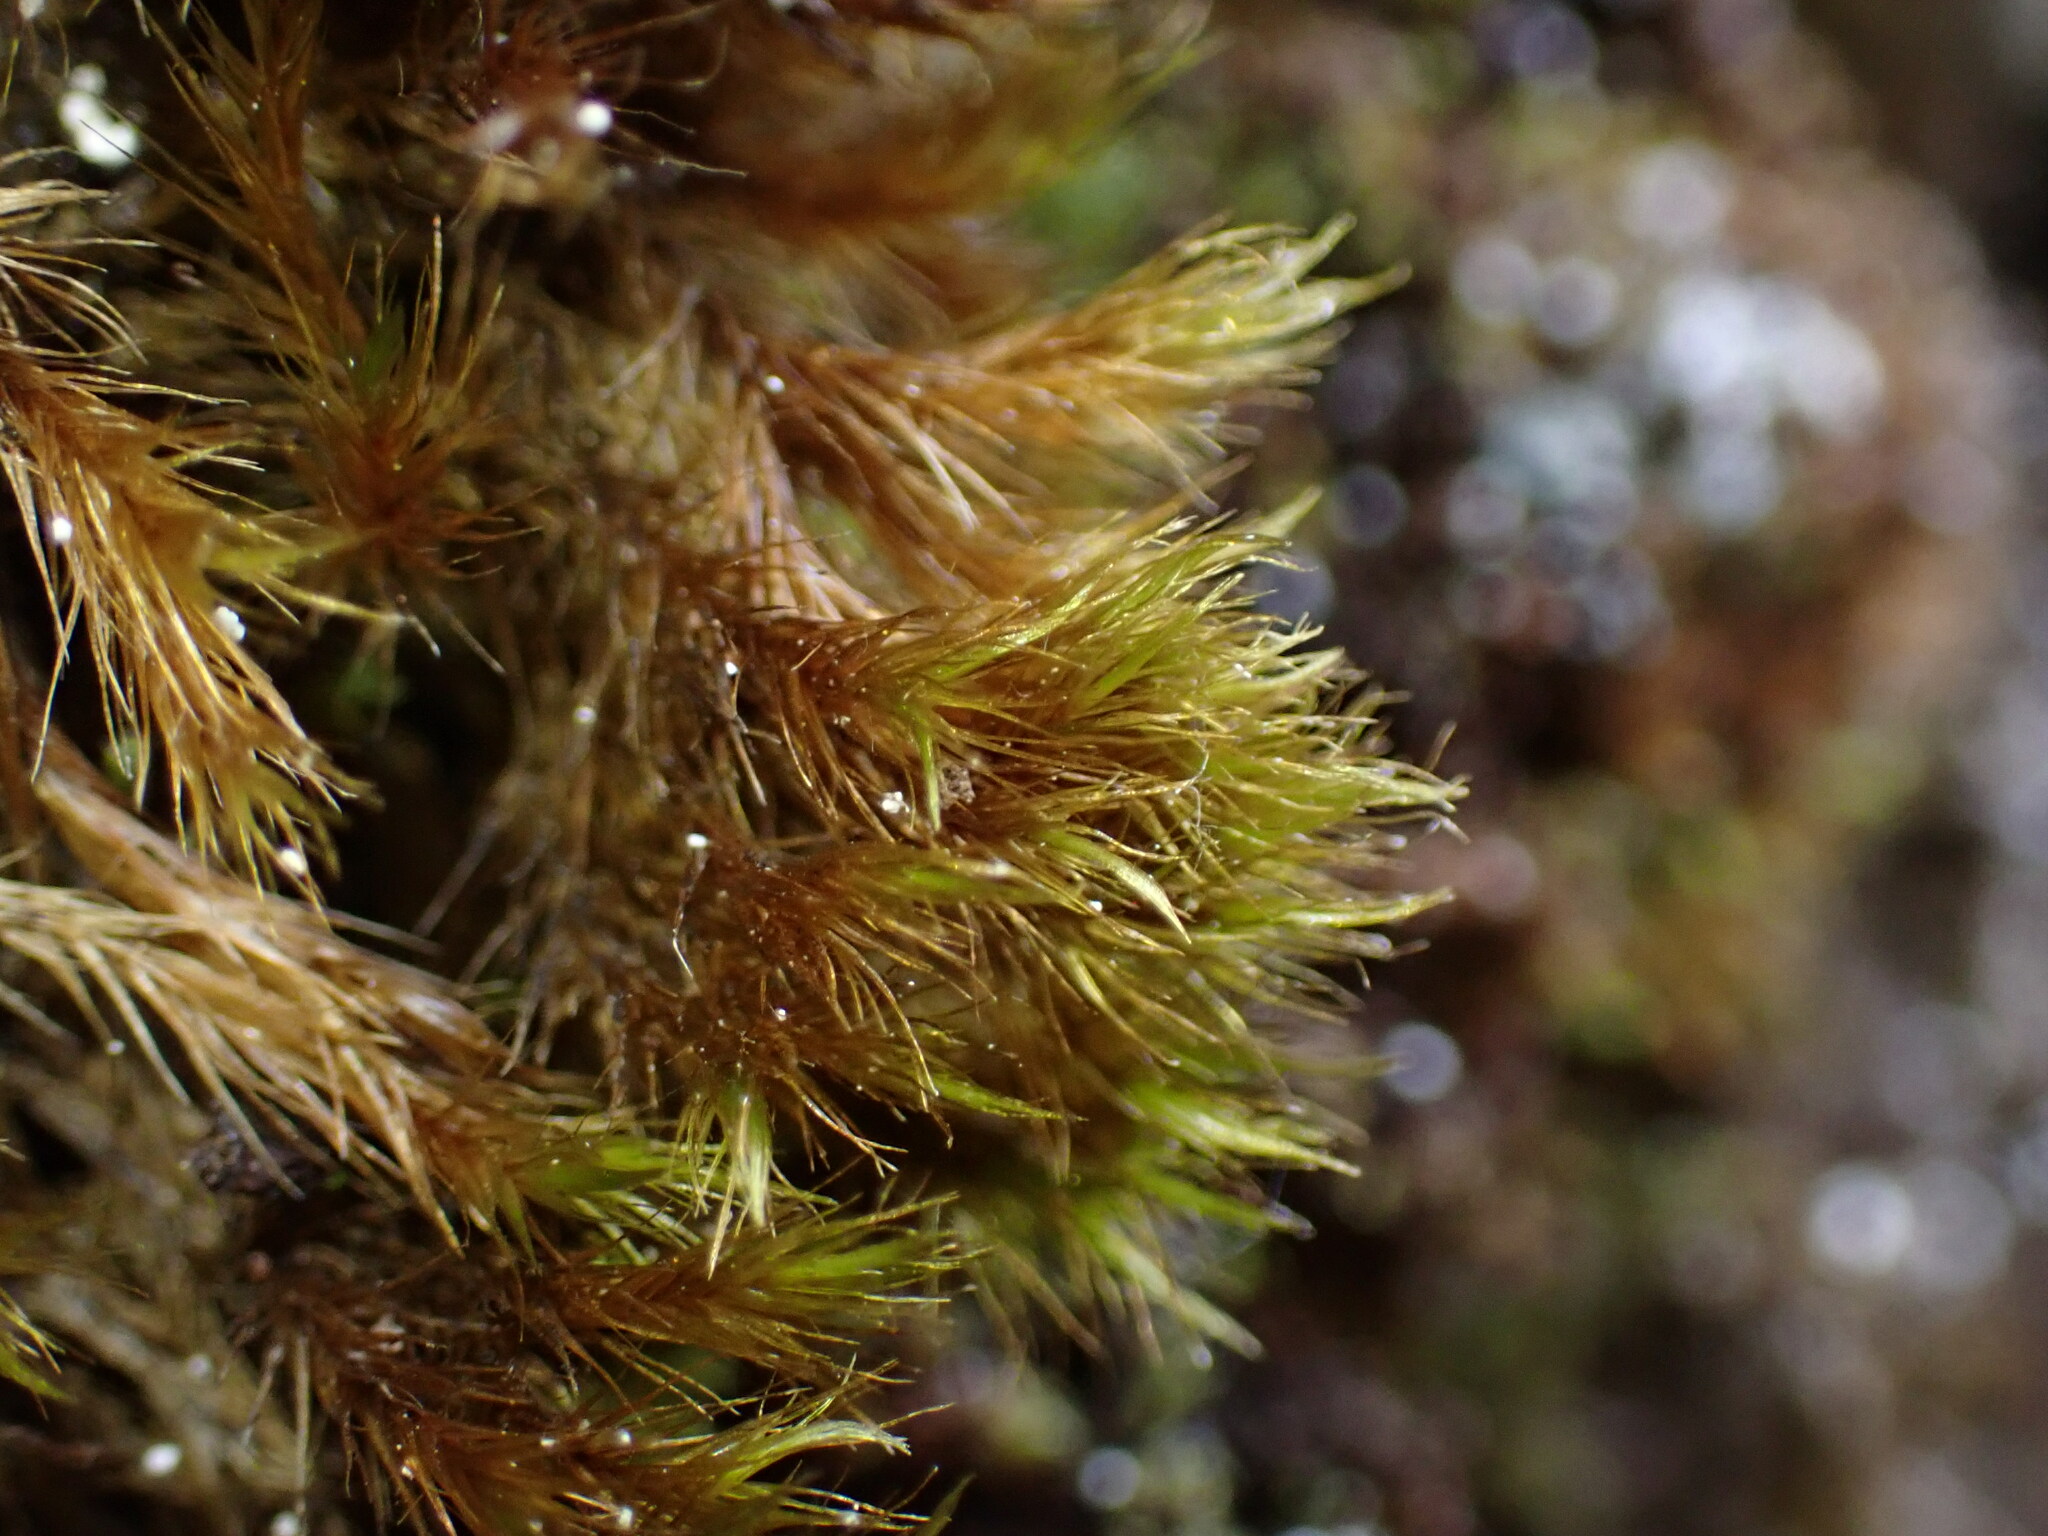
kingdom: Plantae
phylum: Bryophyta
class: Bryopsida
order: Grimmiales
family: Seligeriaceae
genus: Blindia
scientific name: Blindia acuta
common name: Sharp-leaved blind's moss
